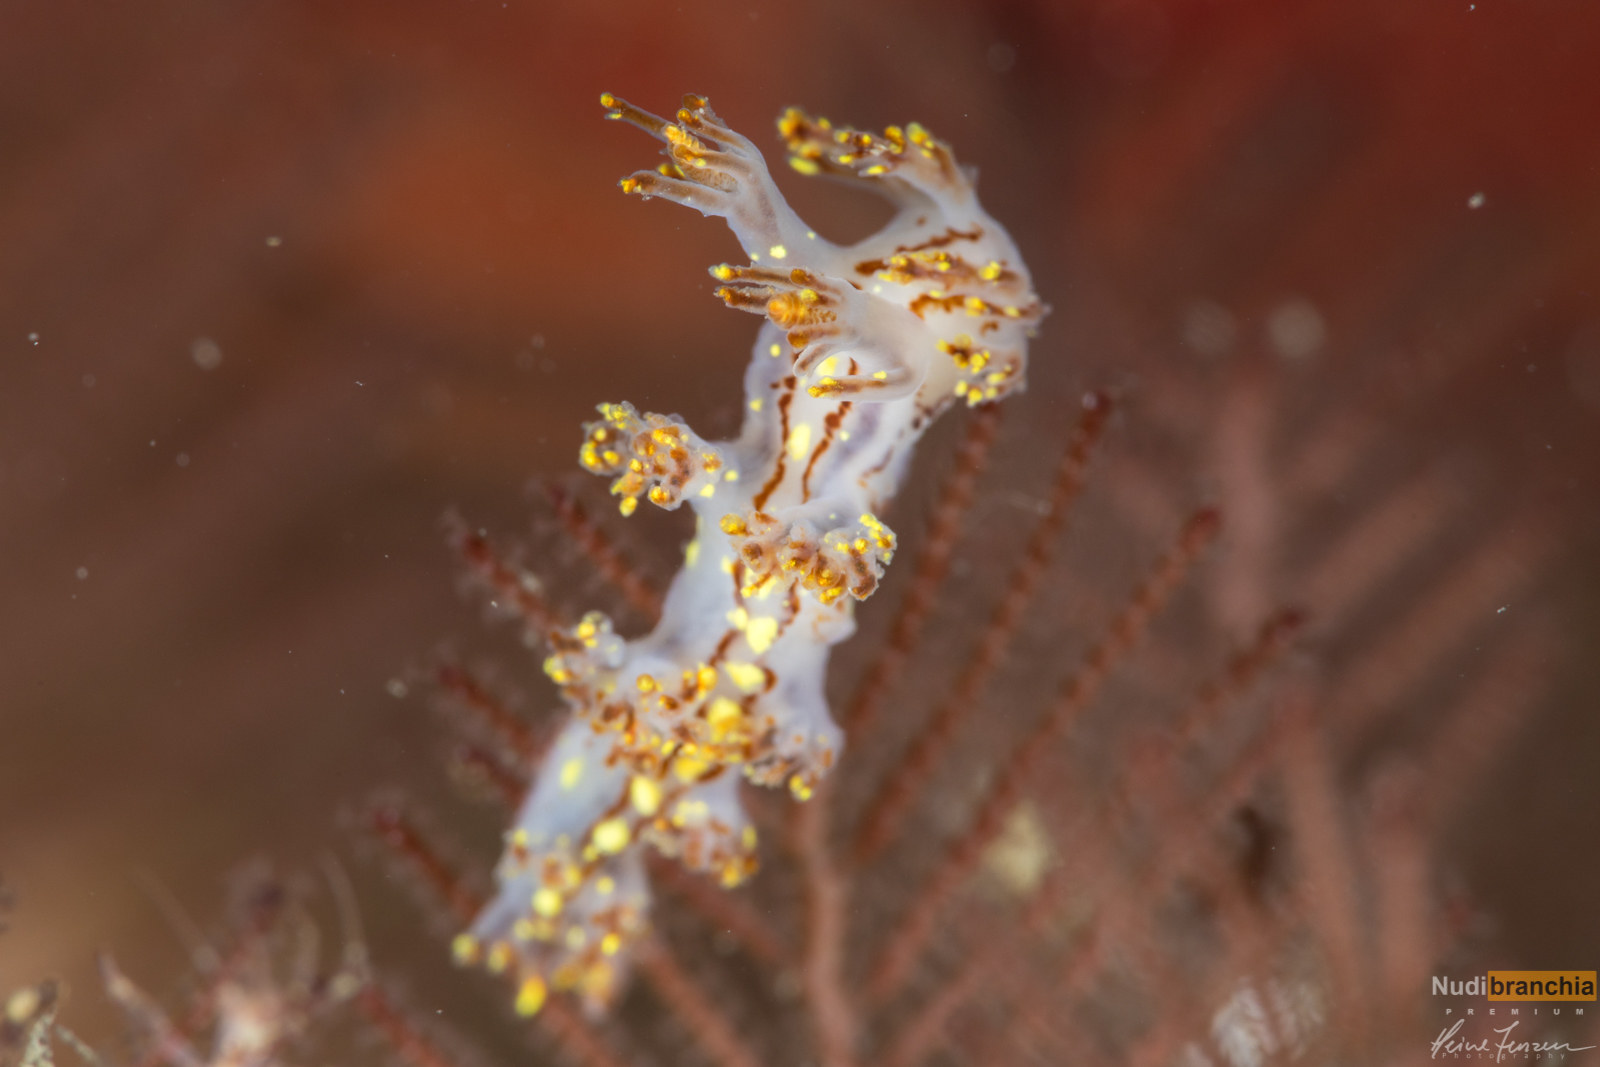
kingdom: Animalia
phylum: Mollusca
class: Gastropoda
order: Nudibranchia
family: Dendronotidae
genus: Dendronotus
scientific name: Dendronotus yrjargul
